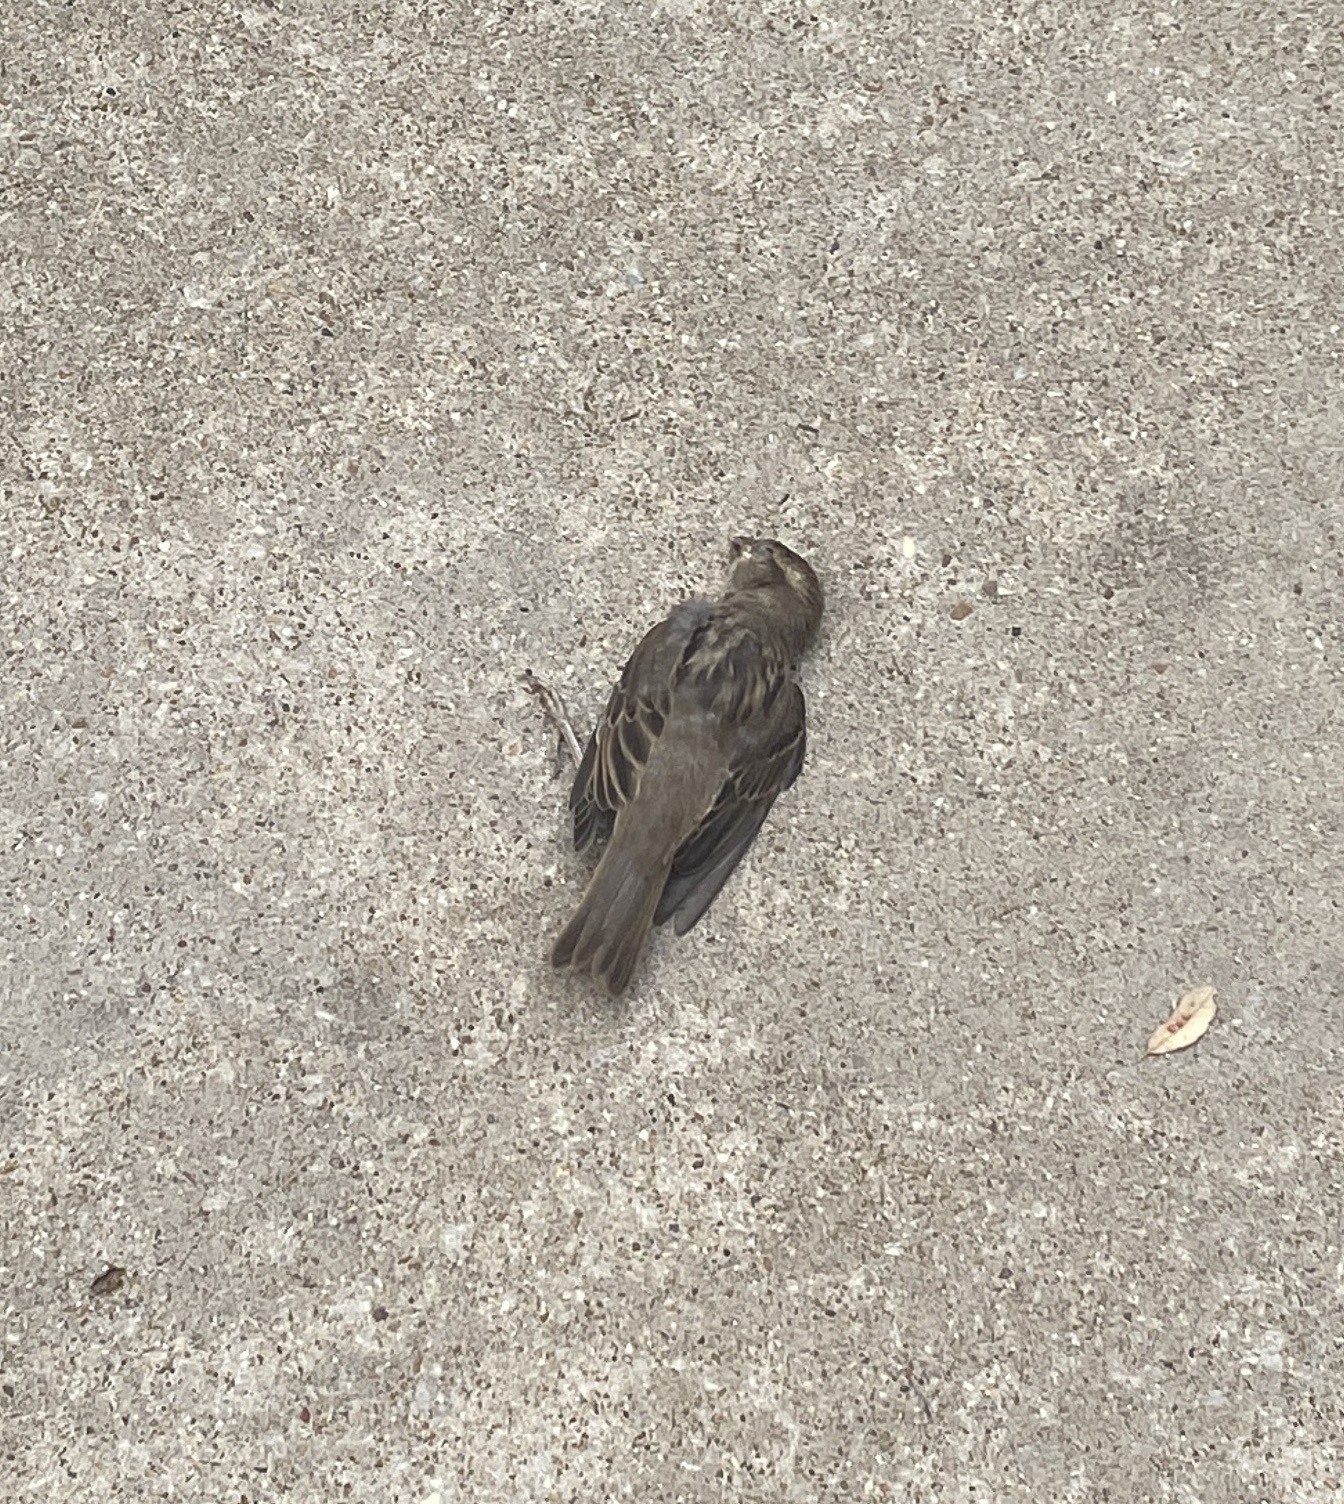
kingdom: Animalia
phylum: Chordata
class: Aves
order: Passeriformes
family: Passeridae
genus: Passer
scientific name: Passer domesticus
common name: House sparrow
